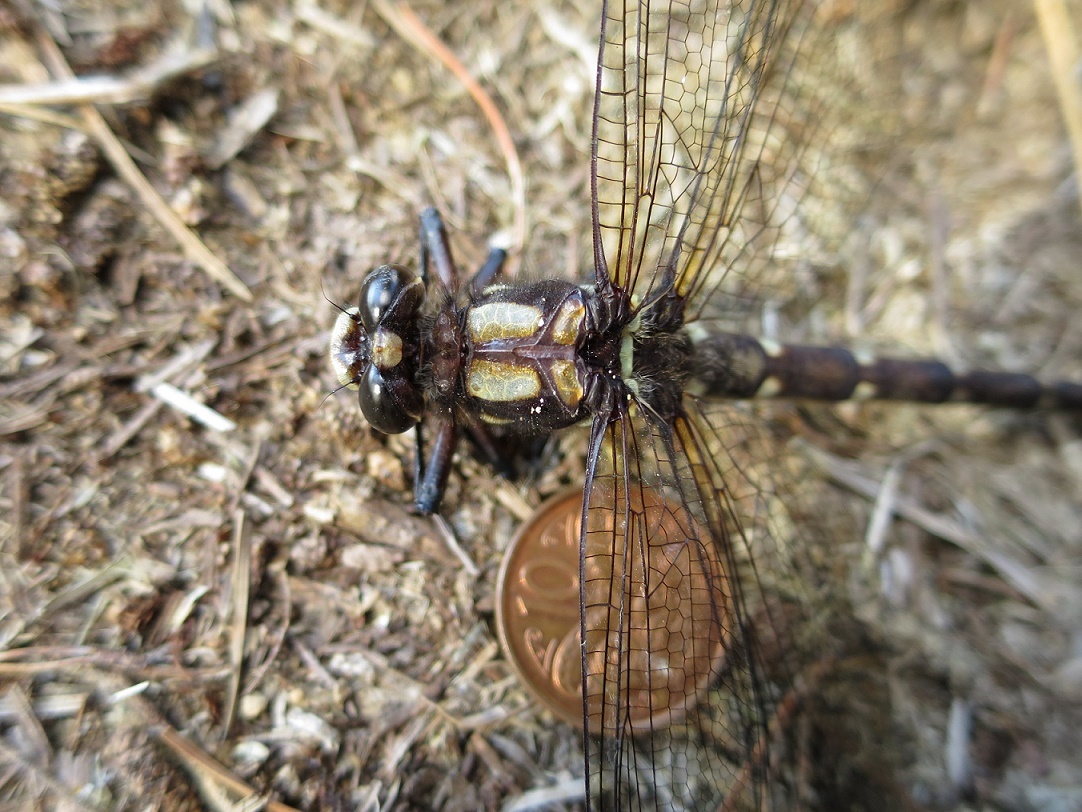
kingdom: Animalia
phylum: Arthropoda
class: Insecta
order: Odonata
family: Petaluridae
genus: Uropetala
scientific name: Uropetala carovei
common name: Bush giant dragonfly
